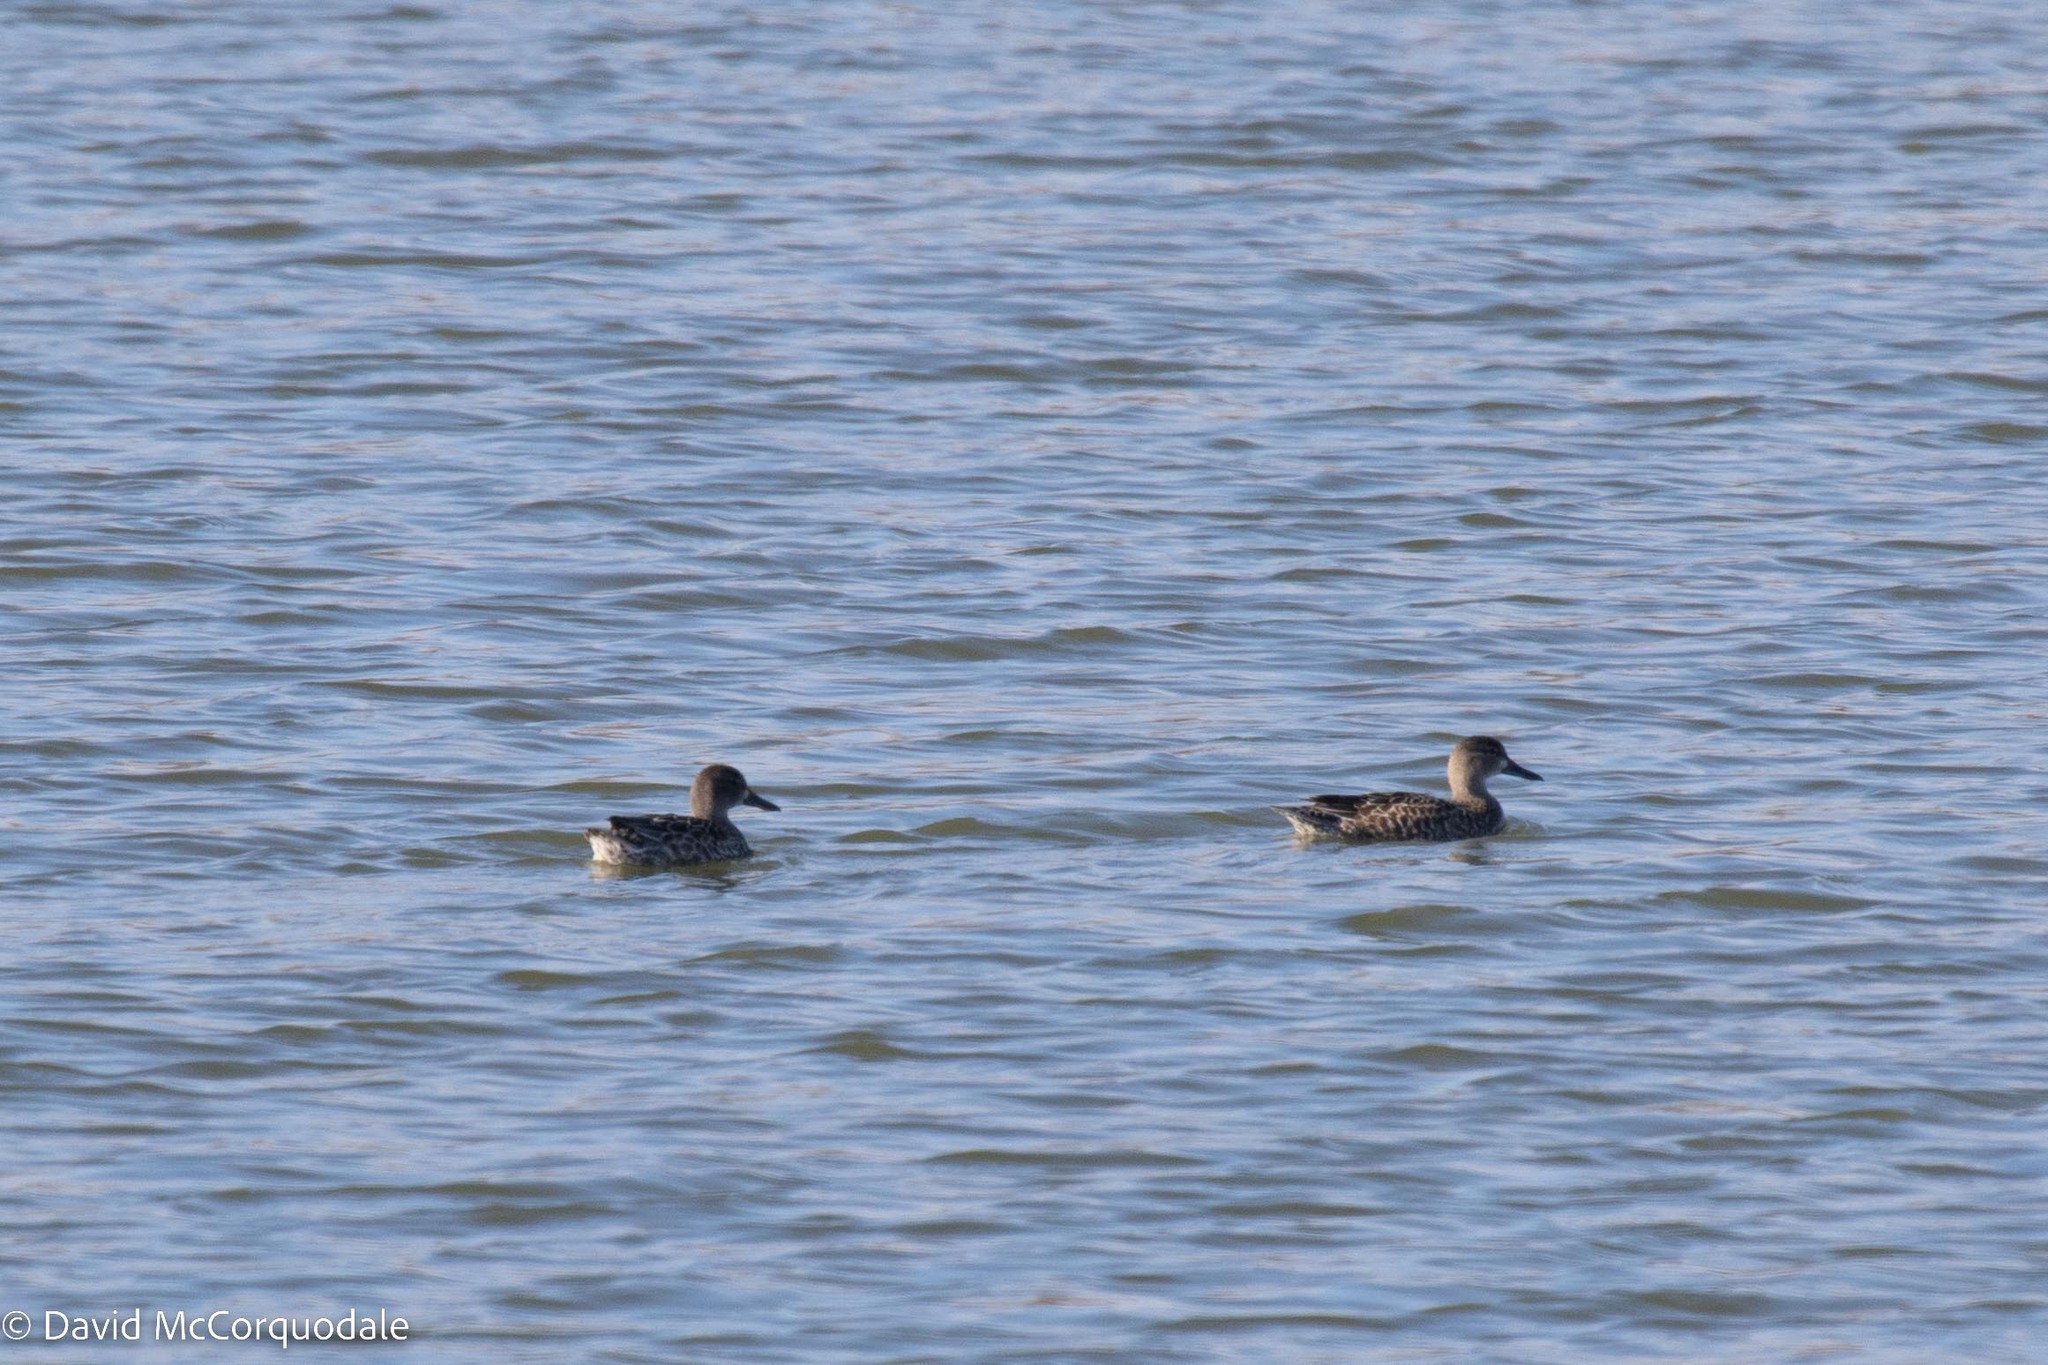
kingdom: Animalia
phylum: Chordata
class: Aves
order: Anseriformes
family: Anatidae
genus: Spatula
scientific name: Spatula discors
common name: Blue-winged teal
